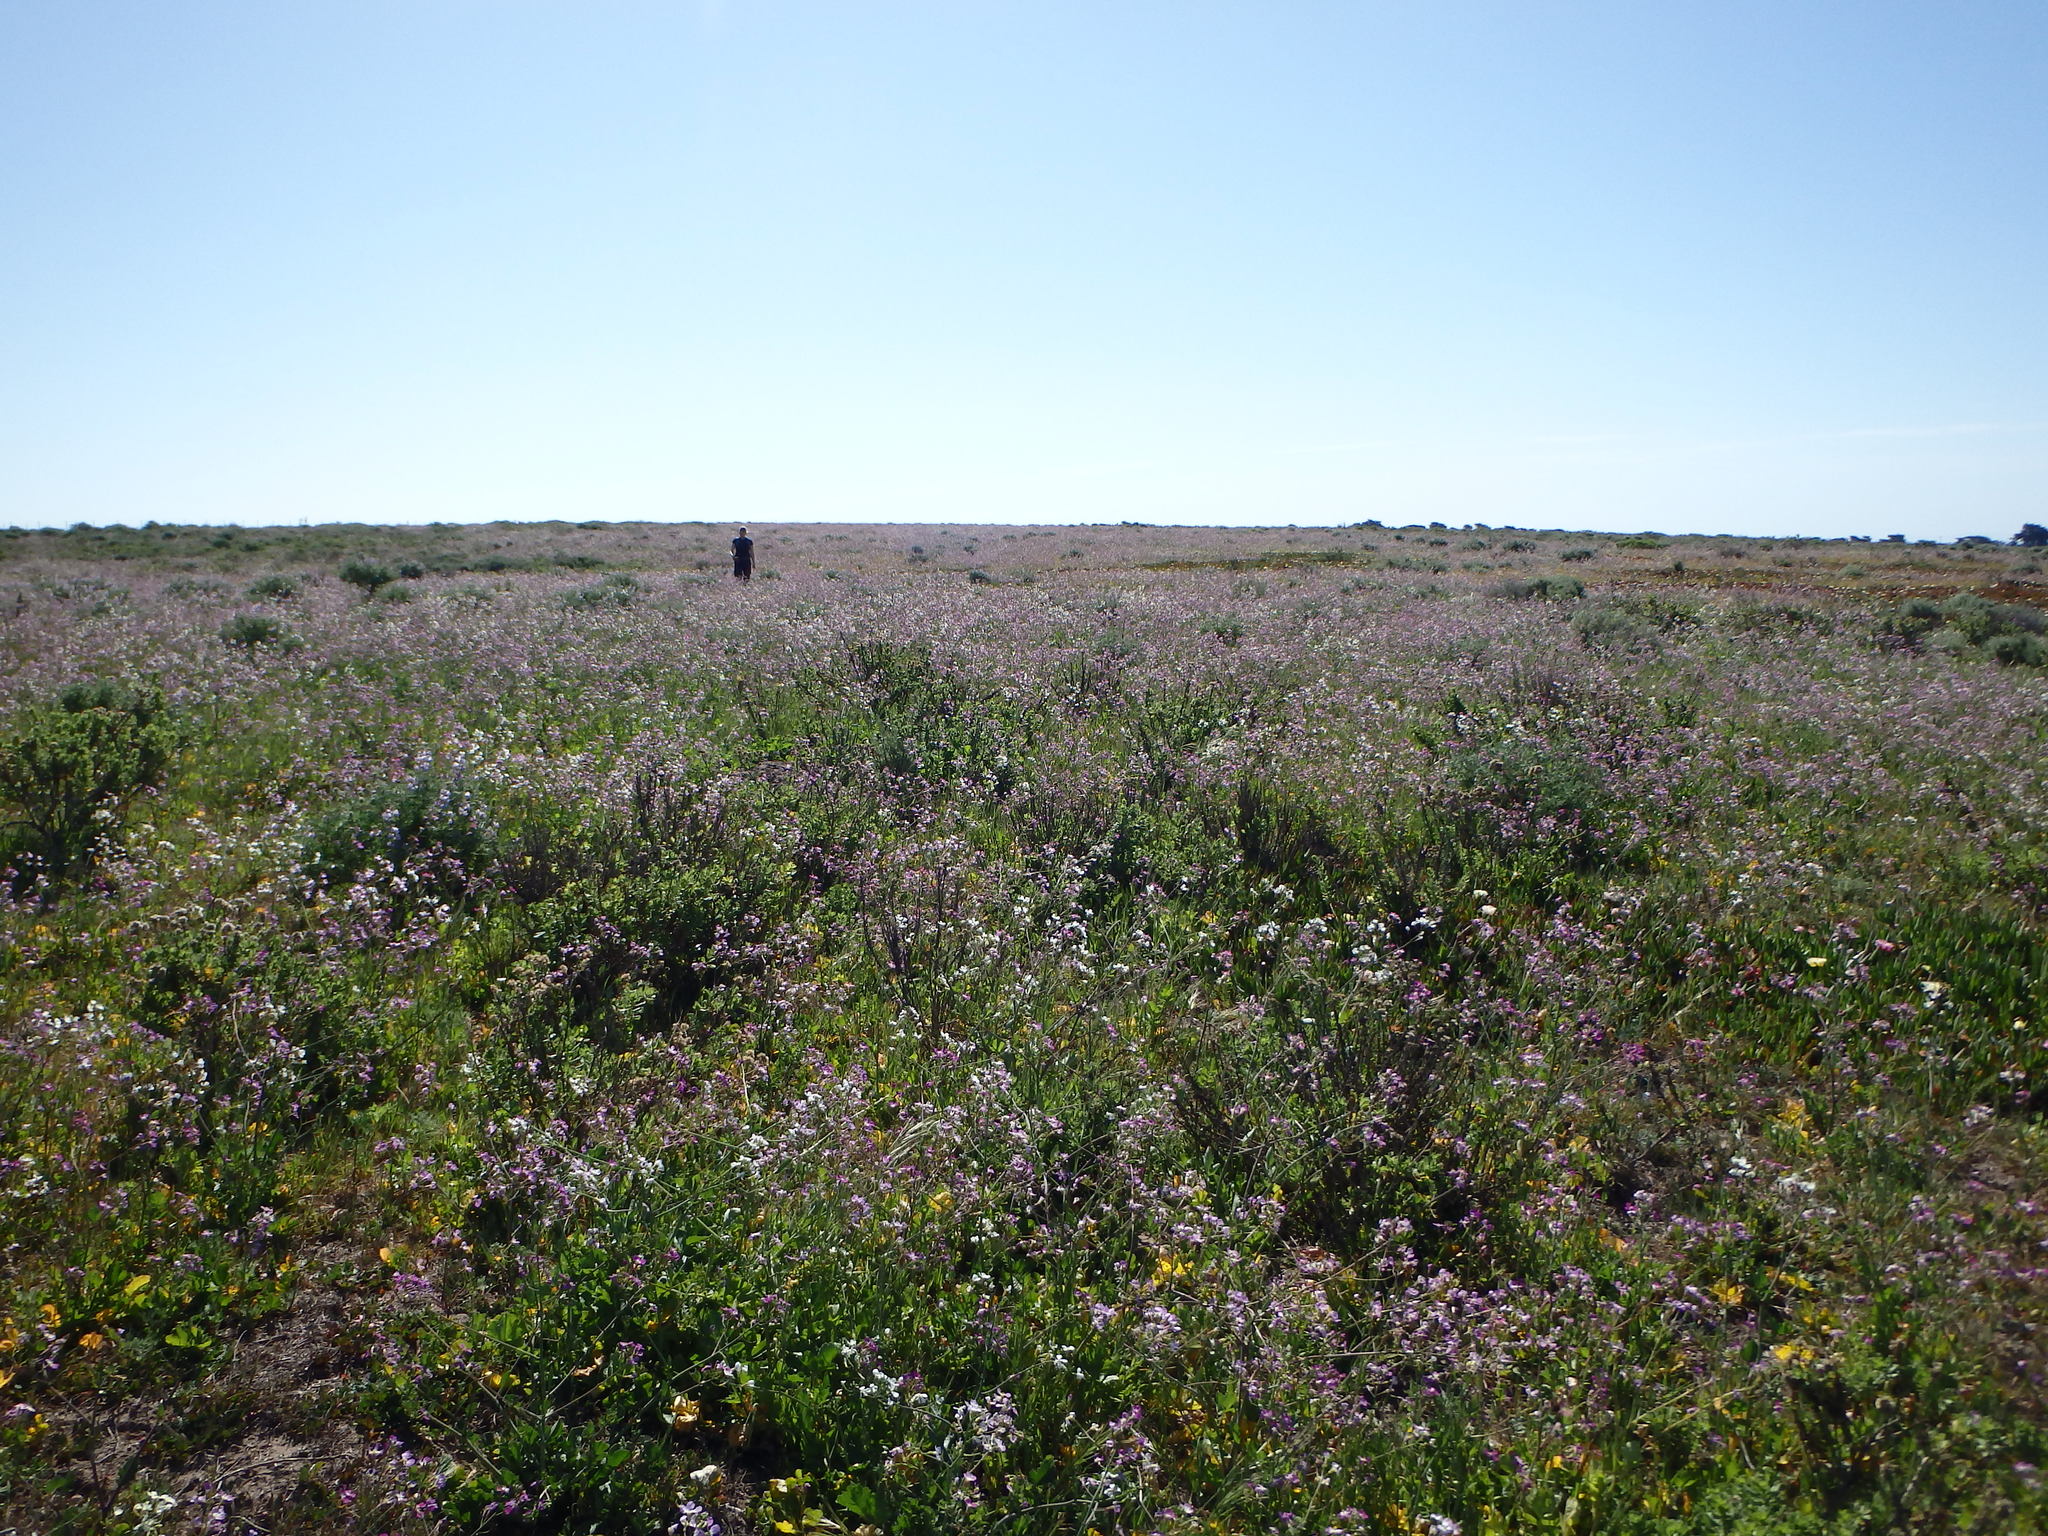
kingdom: Plantae
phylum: Tracheophyta
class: Magnoliopsida
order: Brassicales
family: Brassicaceae
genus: Raphanus
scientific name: Raphanus sativus
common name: Cultivated radish
